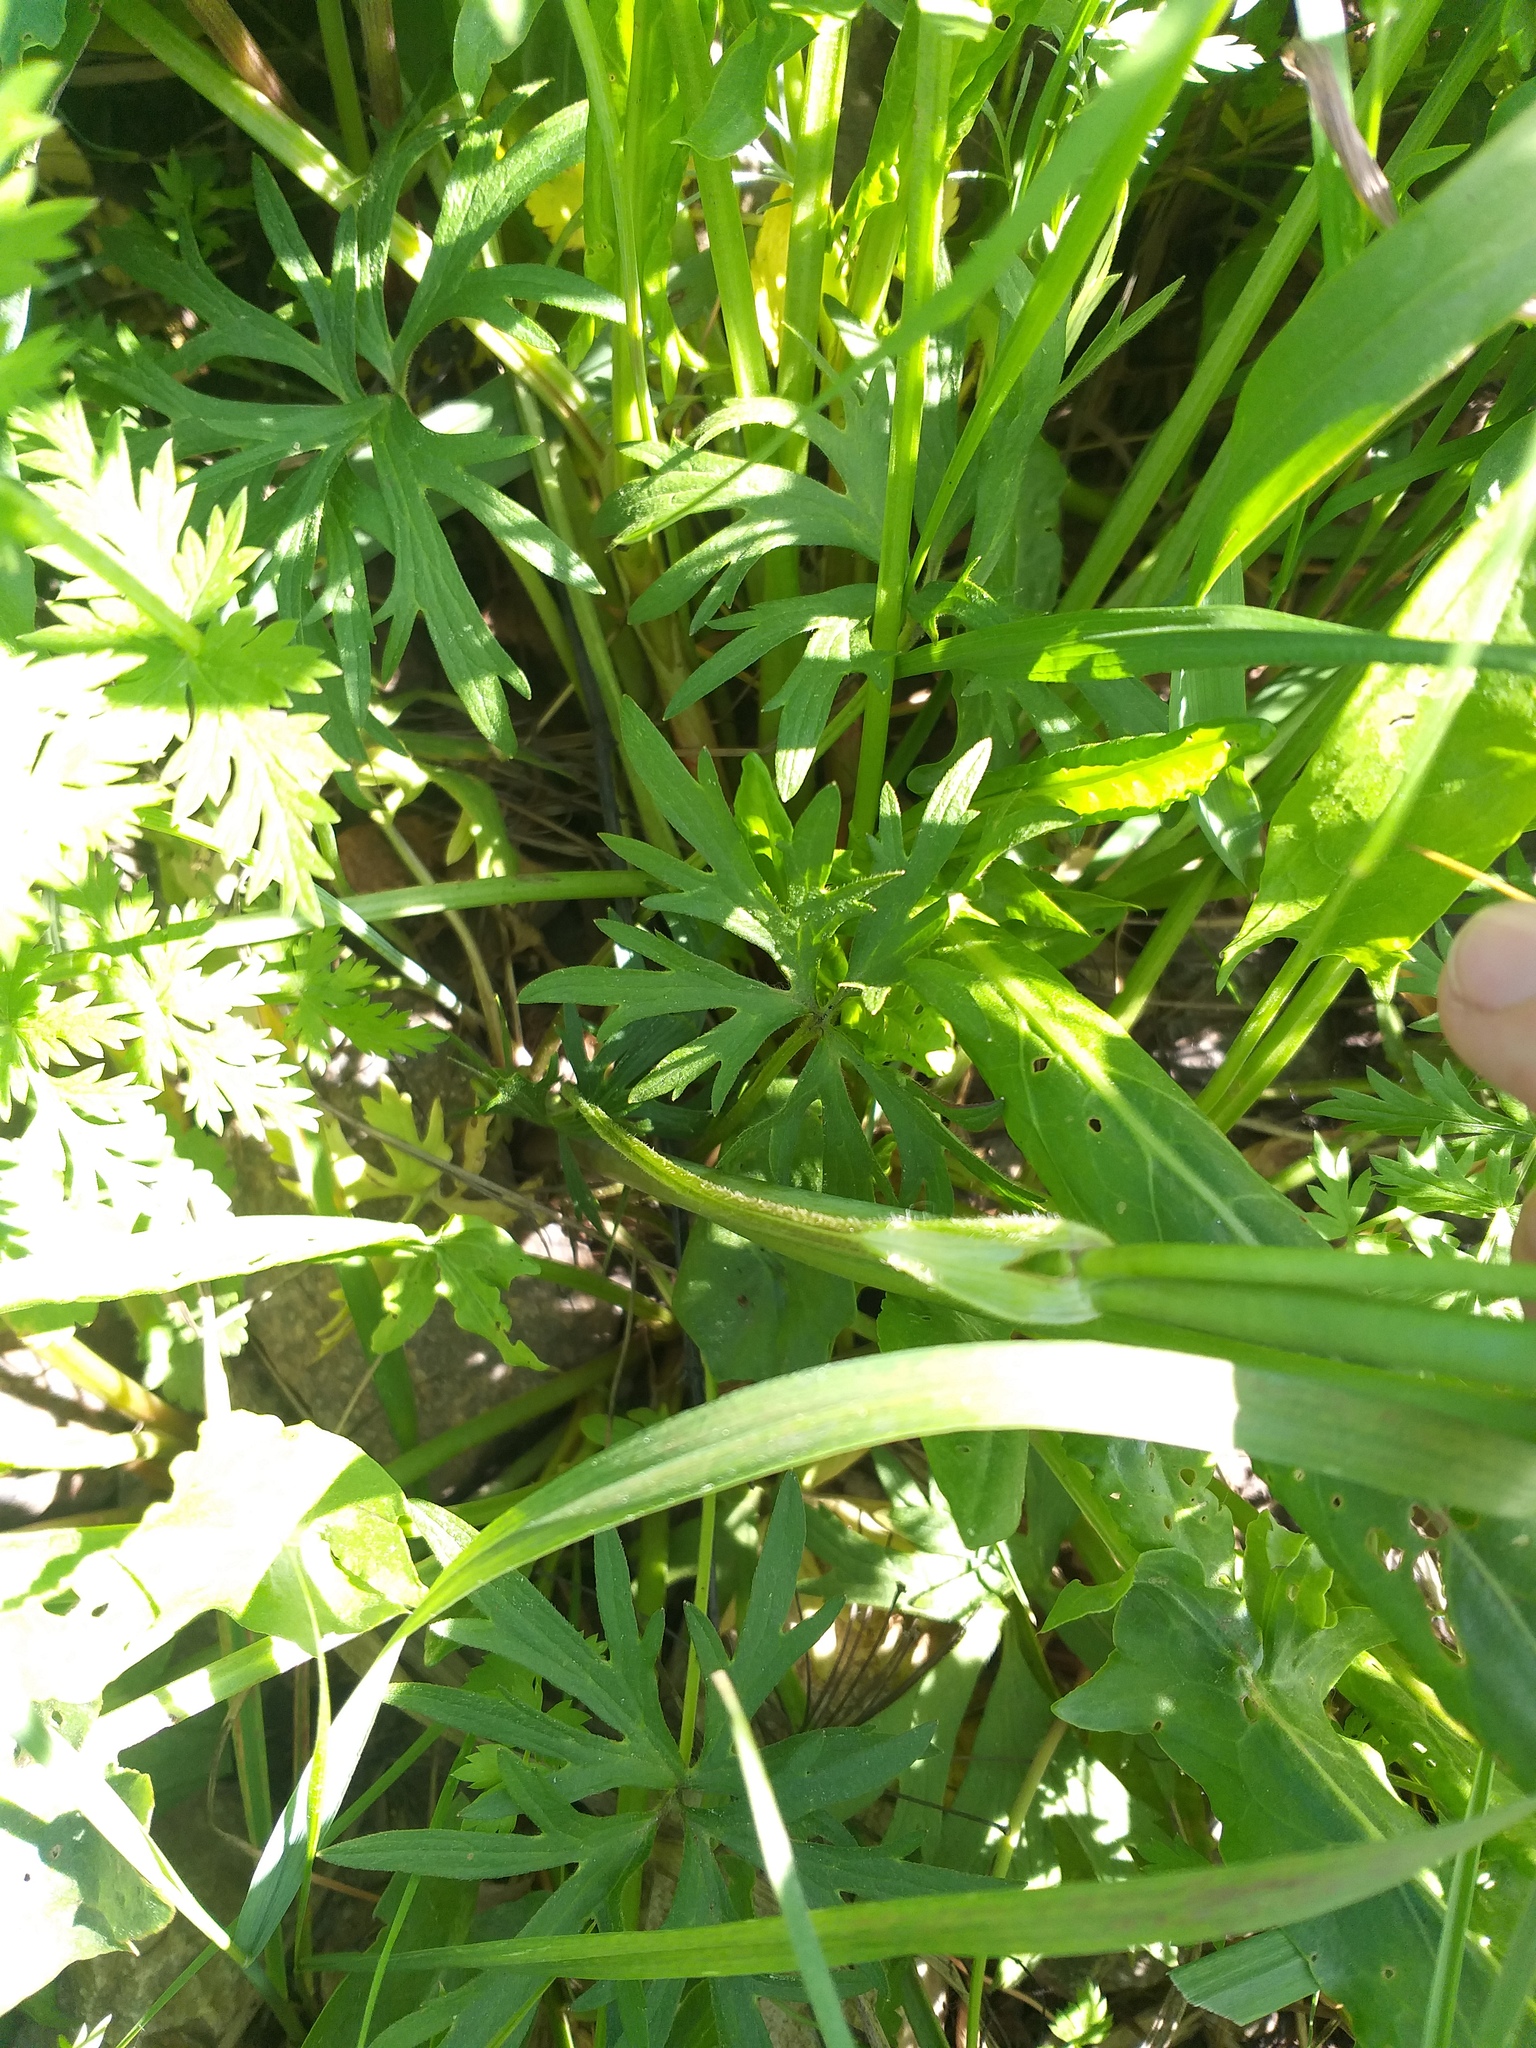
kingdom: Plantae
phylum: Tracheophyta
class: Magnoliopsida
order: Ranunculales
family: Ranunculaceae
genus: Ranunculus
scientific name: Ranunculus acris
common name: Meadow buttercup
